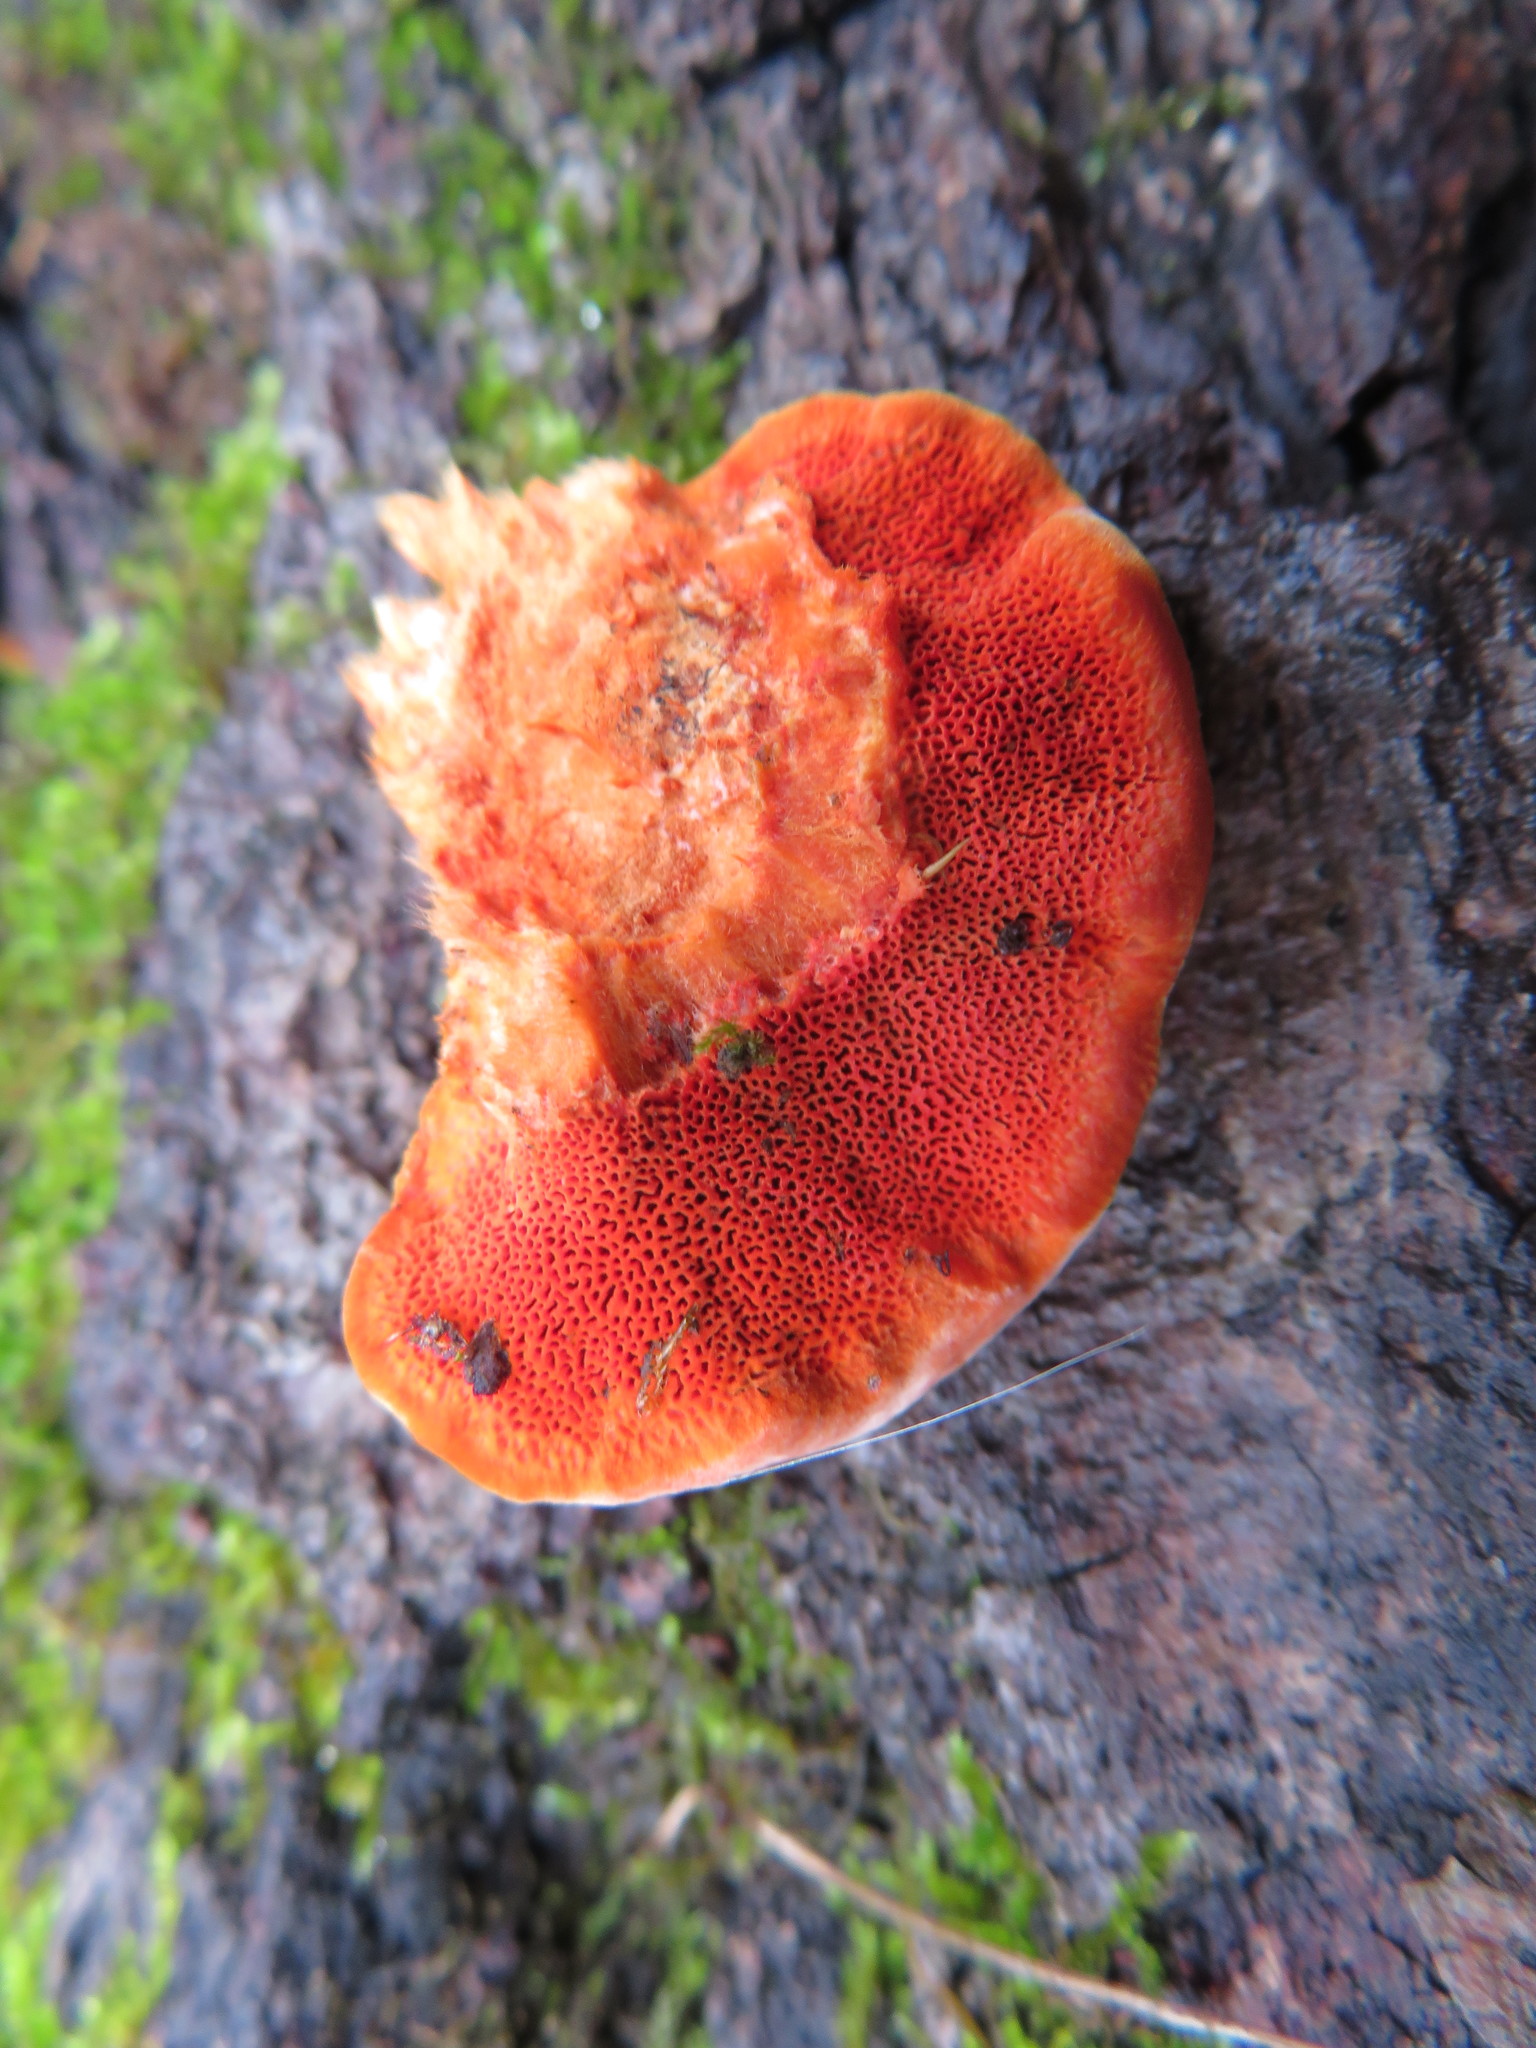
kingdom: Fungi
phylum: Basidiomycota
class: Agaricomycetes
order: Polyporales
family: Polyporaceae
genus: Trametes
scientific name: Trametes cinnabarina
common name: Northern cinnabar polypore
